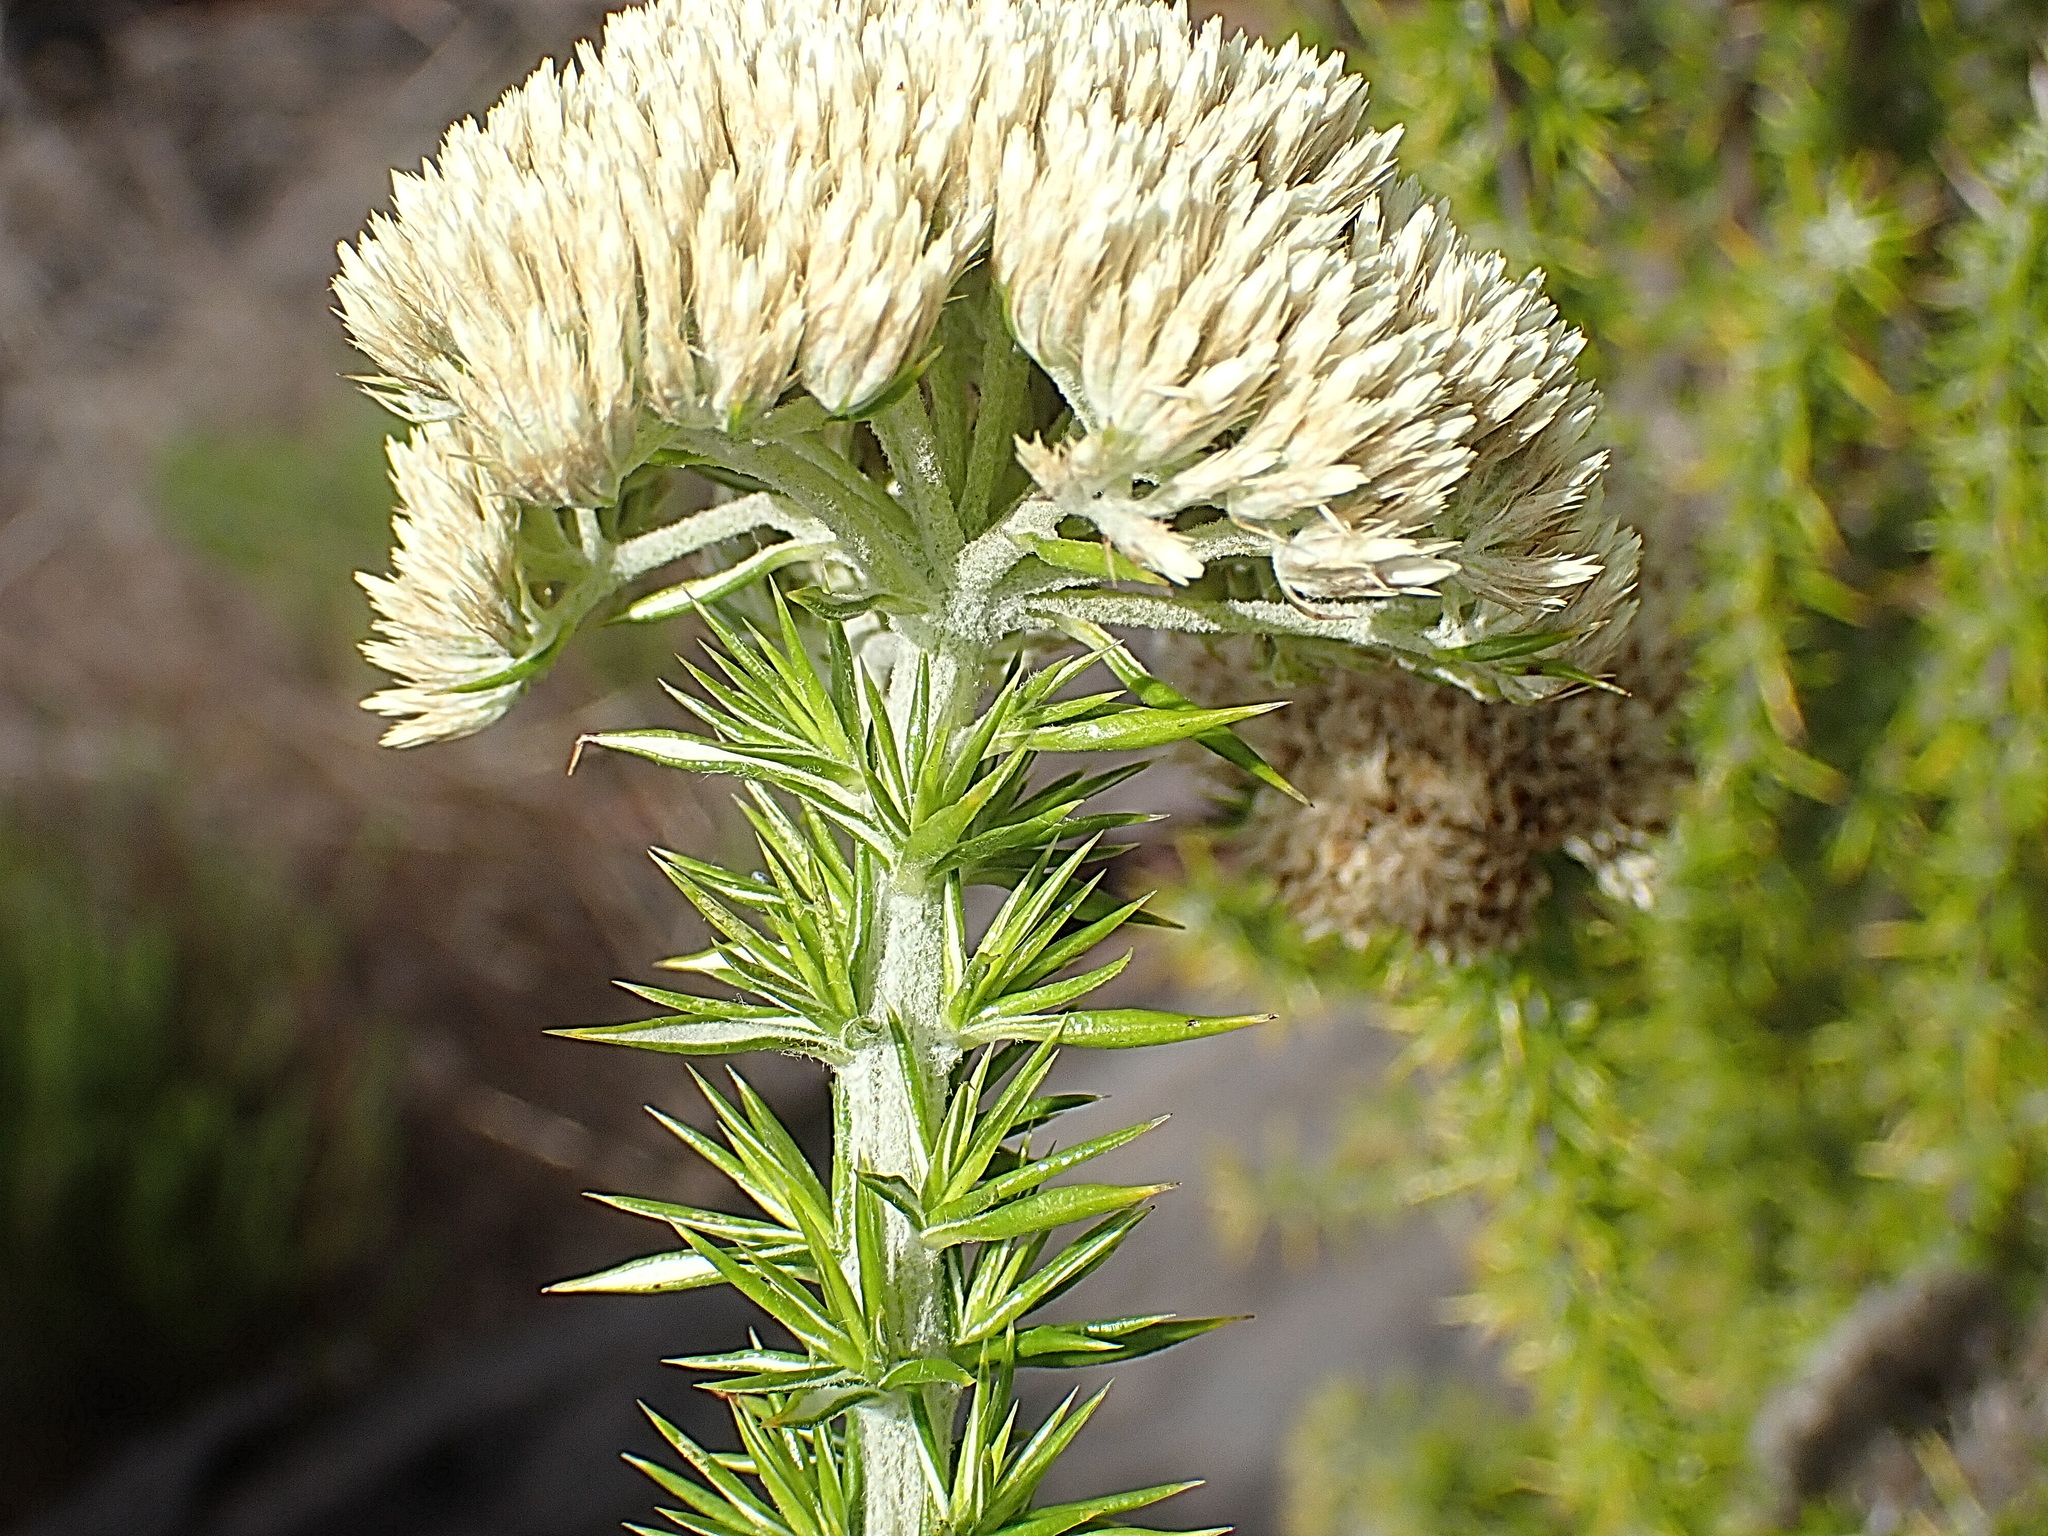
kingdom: Plantae
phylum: Tracheophyta
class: Magnoliopsida
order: Asterales
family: Asteraceae
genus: Metalasia
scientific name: Metalasia trivialis
